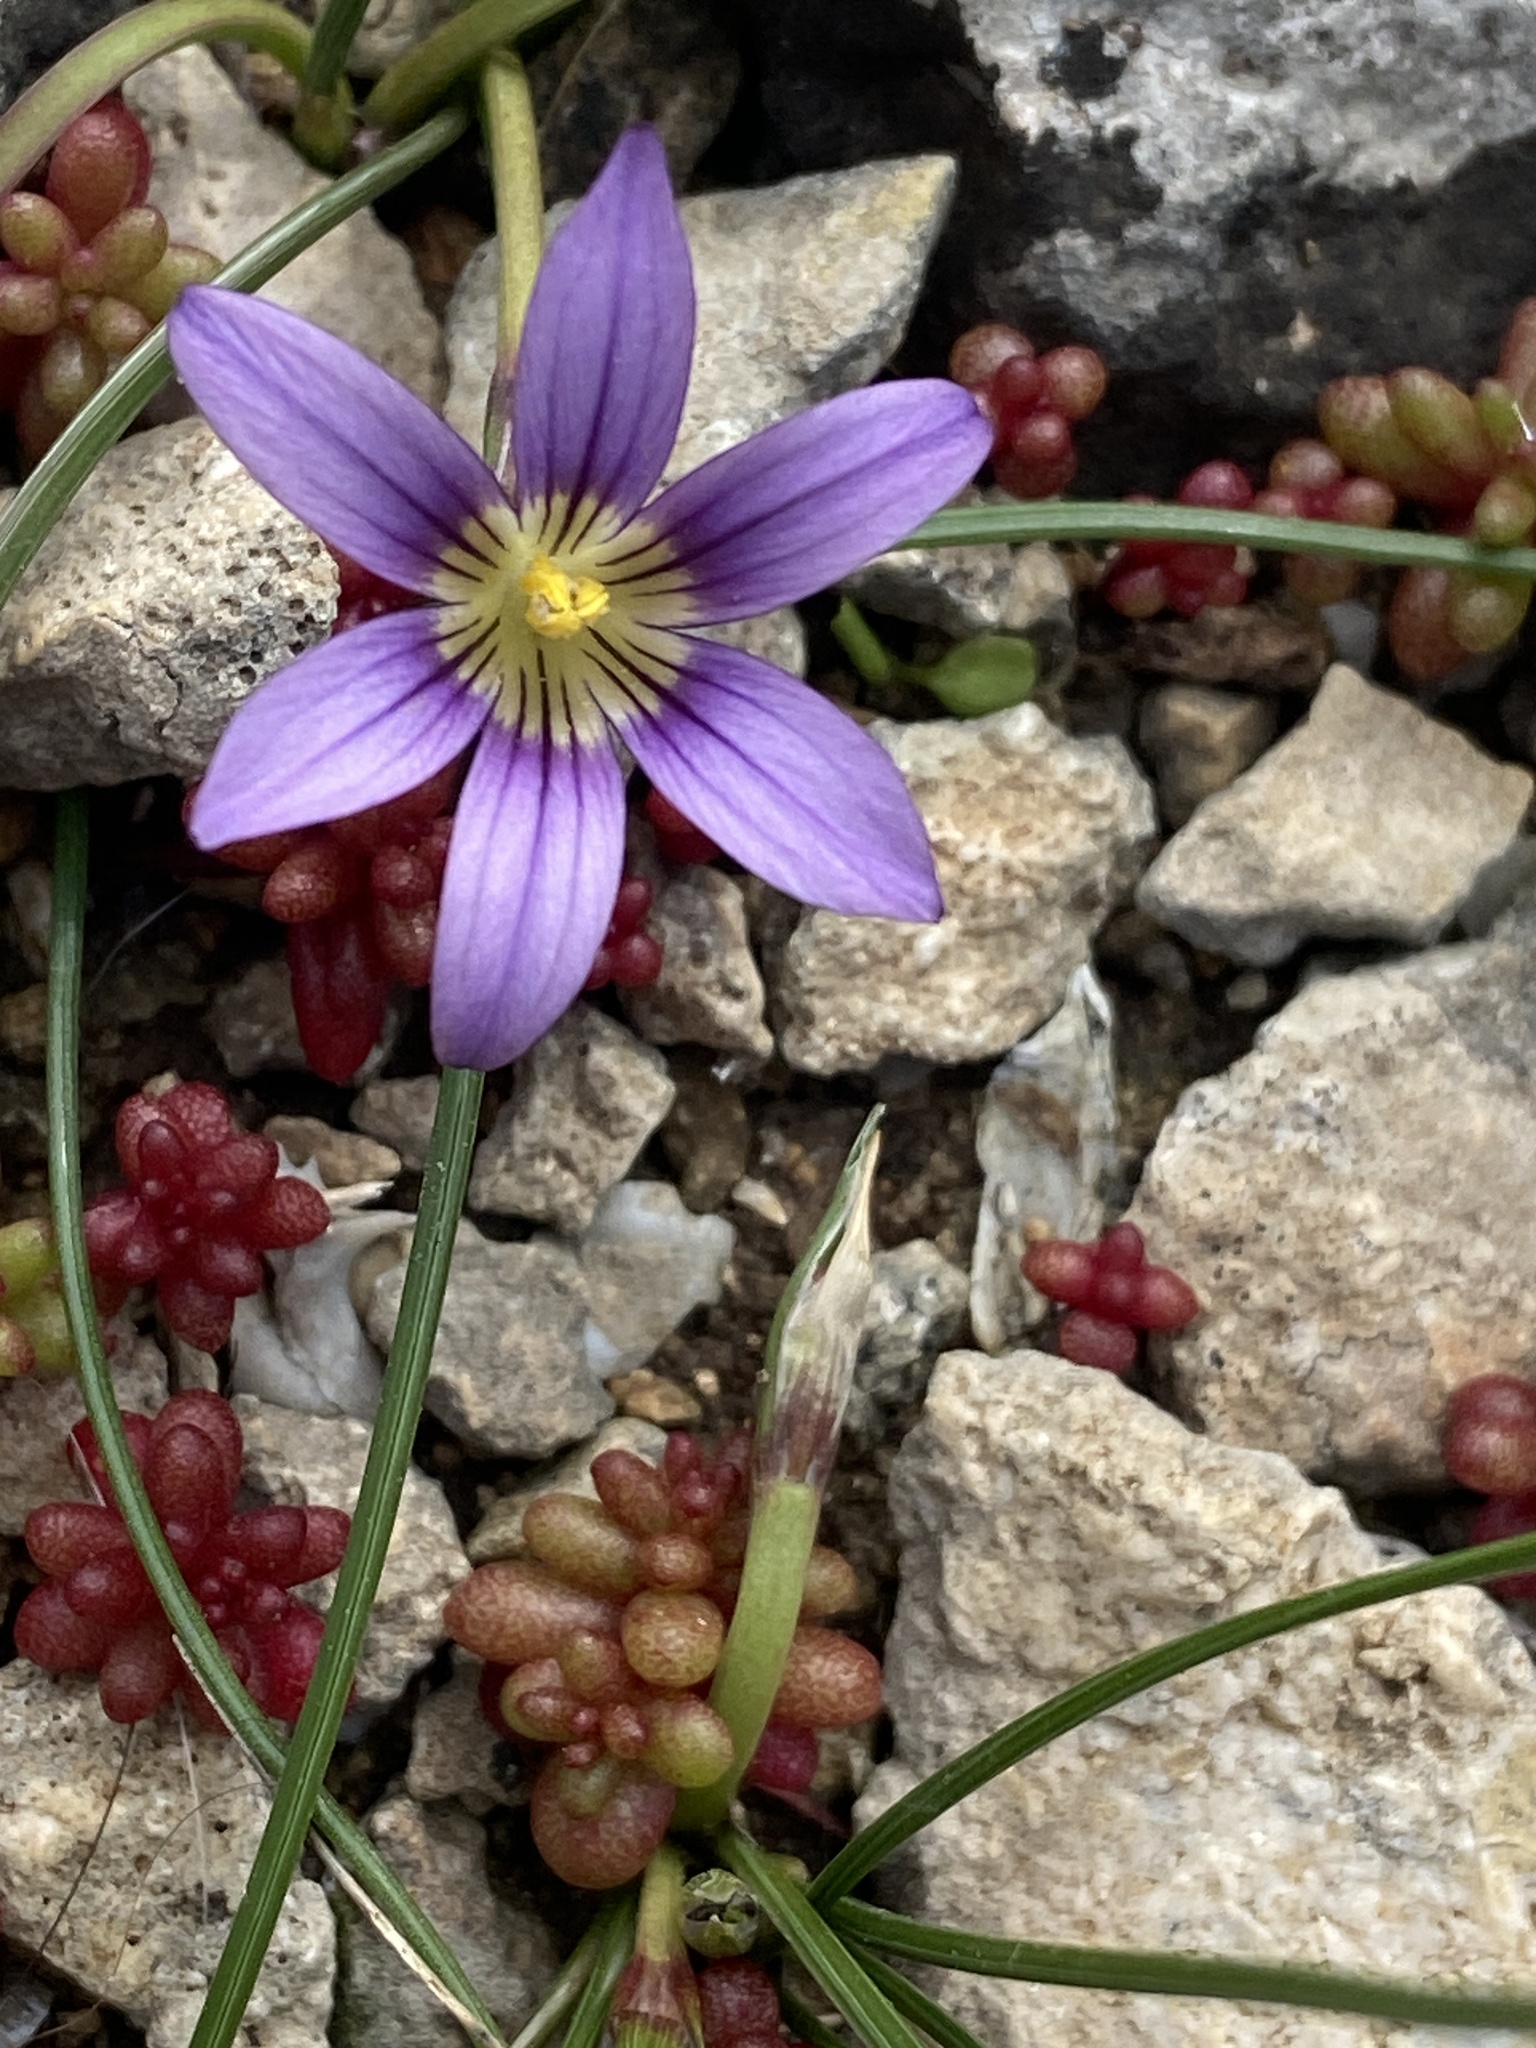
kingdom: Plantae
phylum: Tracheophyta
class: Liliopsida
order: Asparagales
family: Iridaceae
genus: Romulea
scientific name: Romulea variicolor
